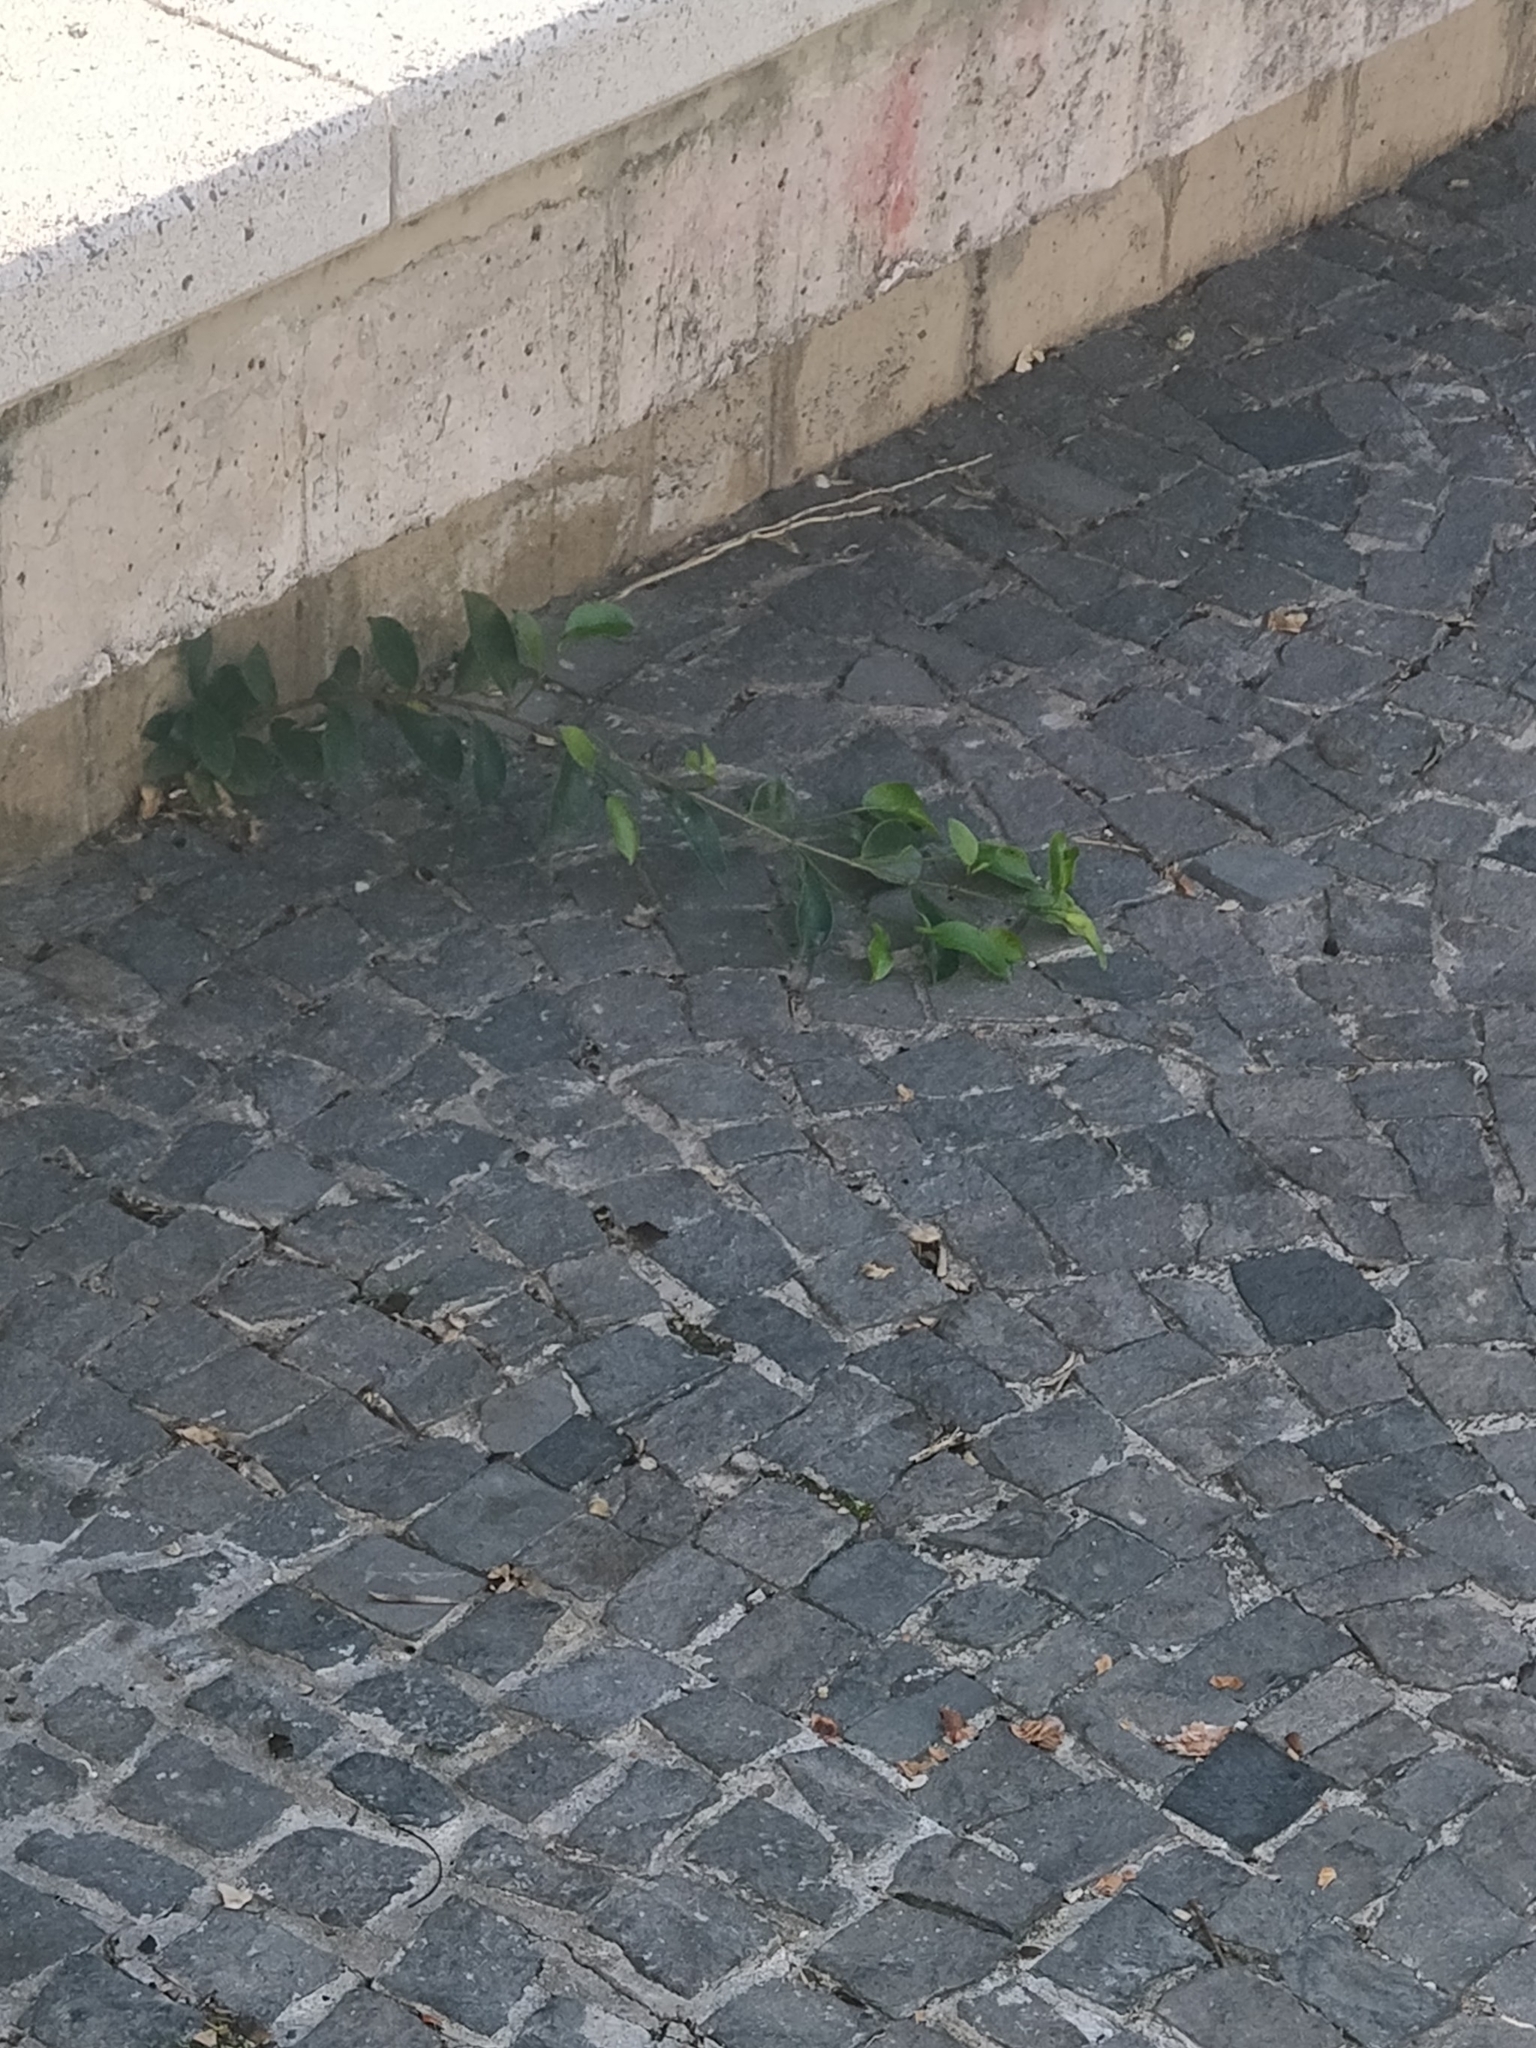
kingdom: Plantae
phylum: Tracheophyta
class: Magnoliopsida
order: Rosales
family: Moraceae
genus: Ficus
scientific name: Ficus benjamina
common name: Weeping fig
